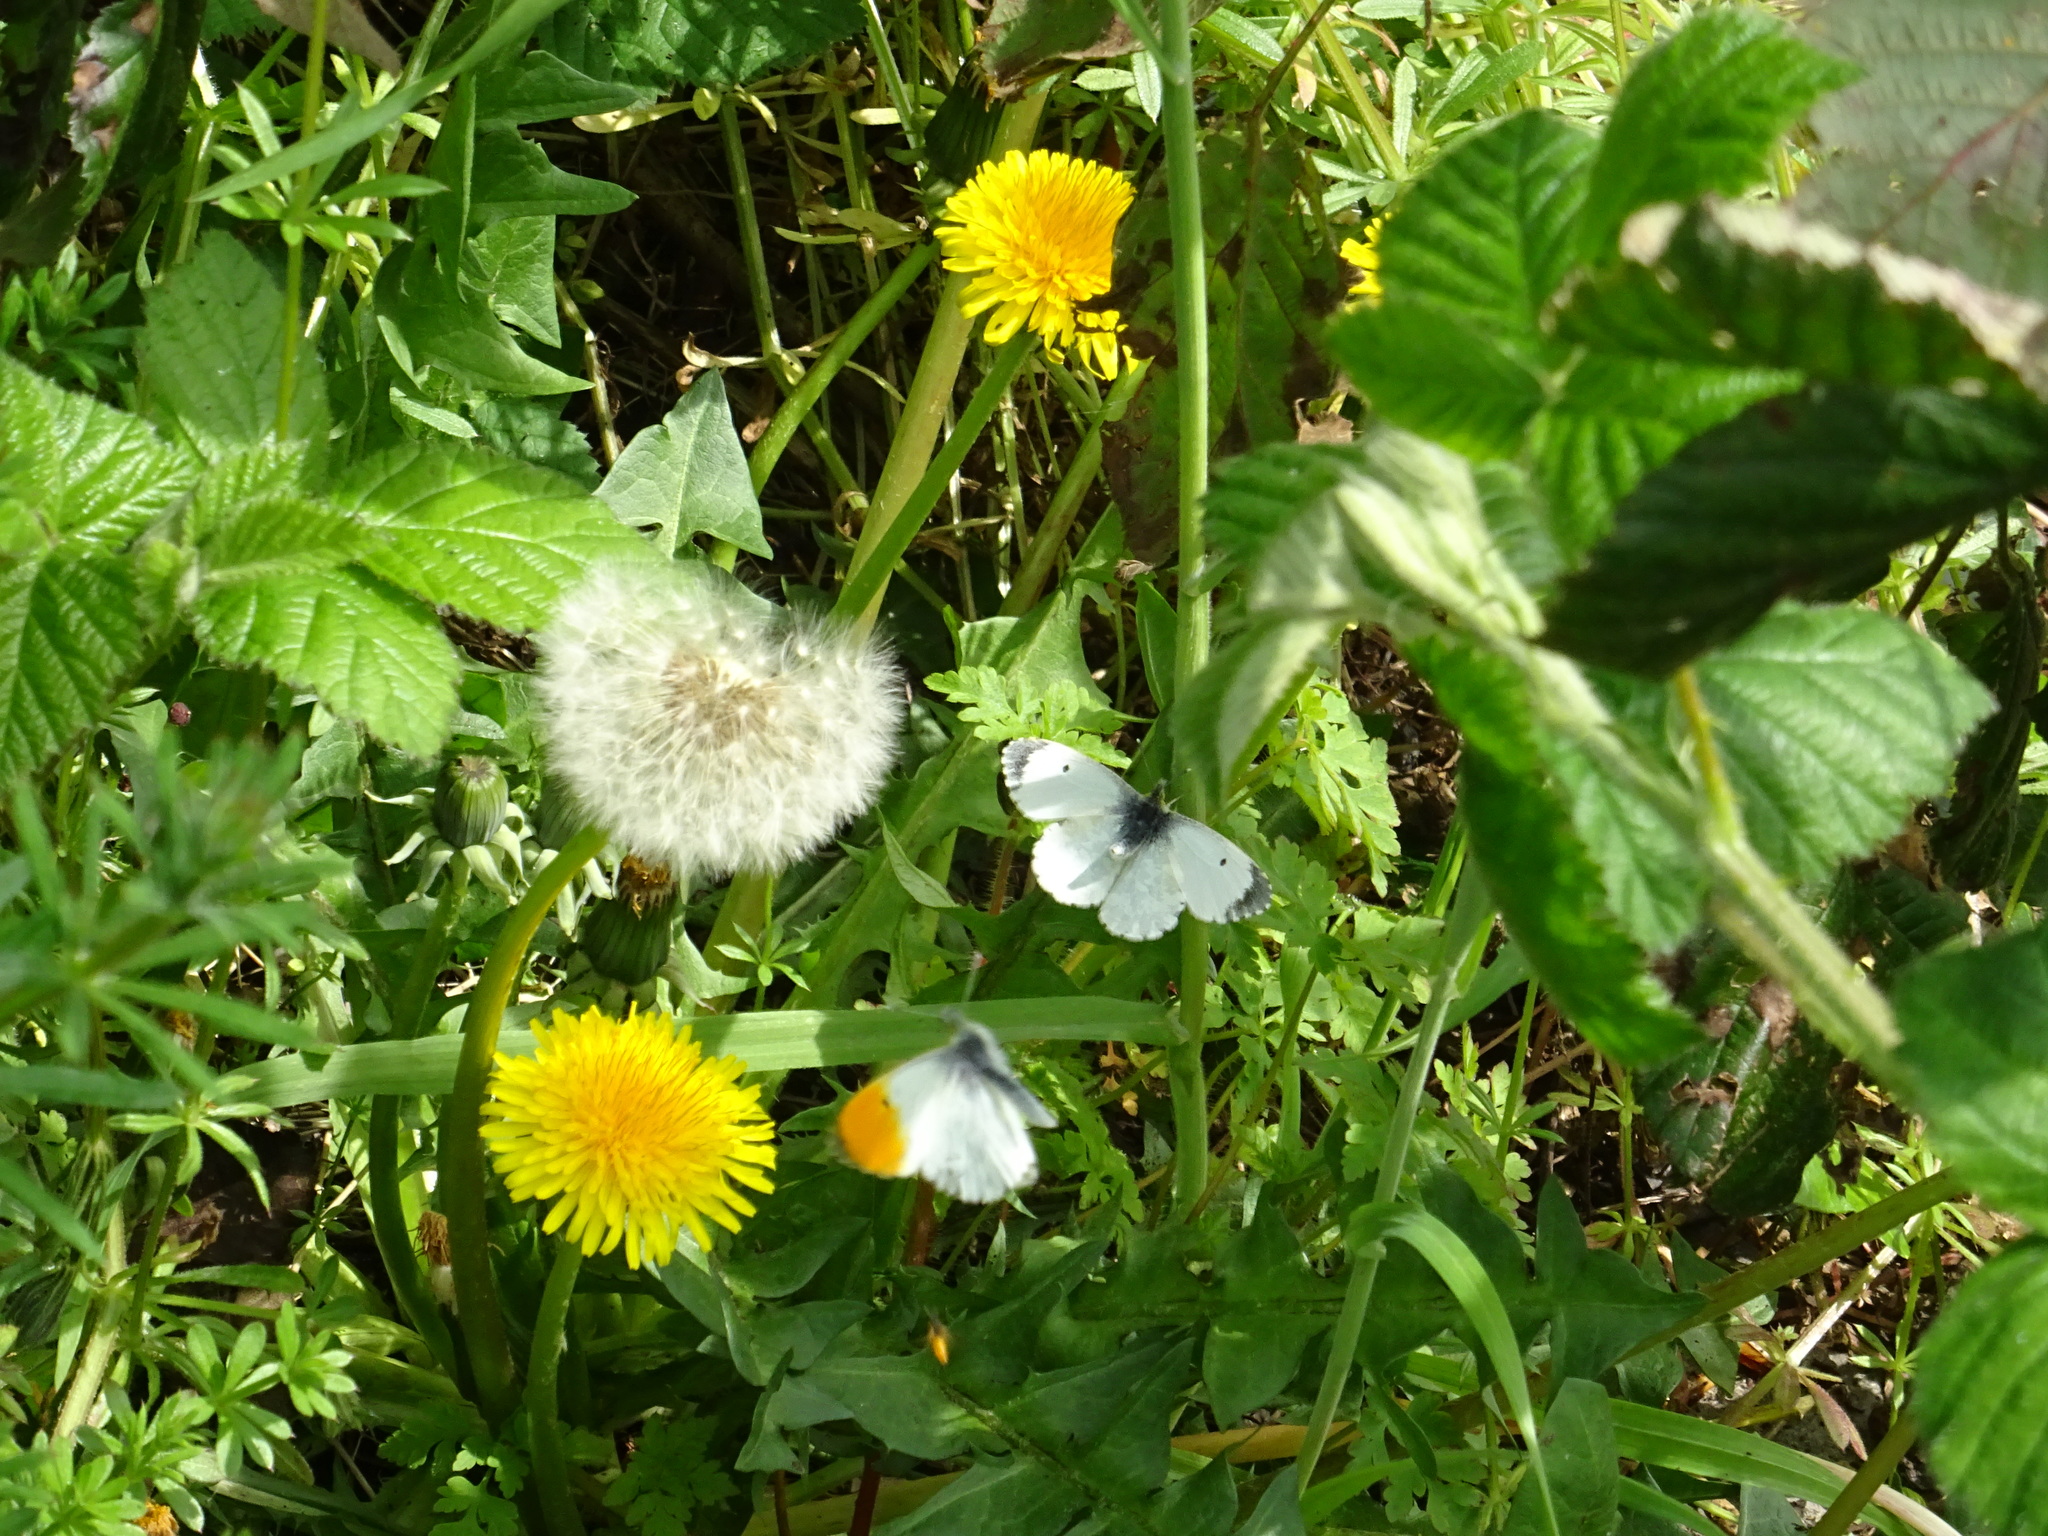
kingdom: Animalia
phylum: Arthropoda
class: Insecta
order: Lepidoptera
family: Pieridae
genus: Anthocharis
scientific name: Anthocharis cardamines
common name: Orange-tip
